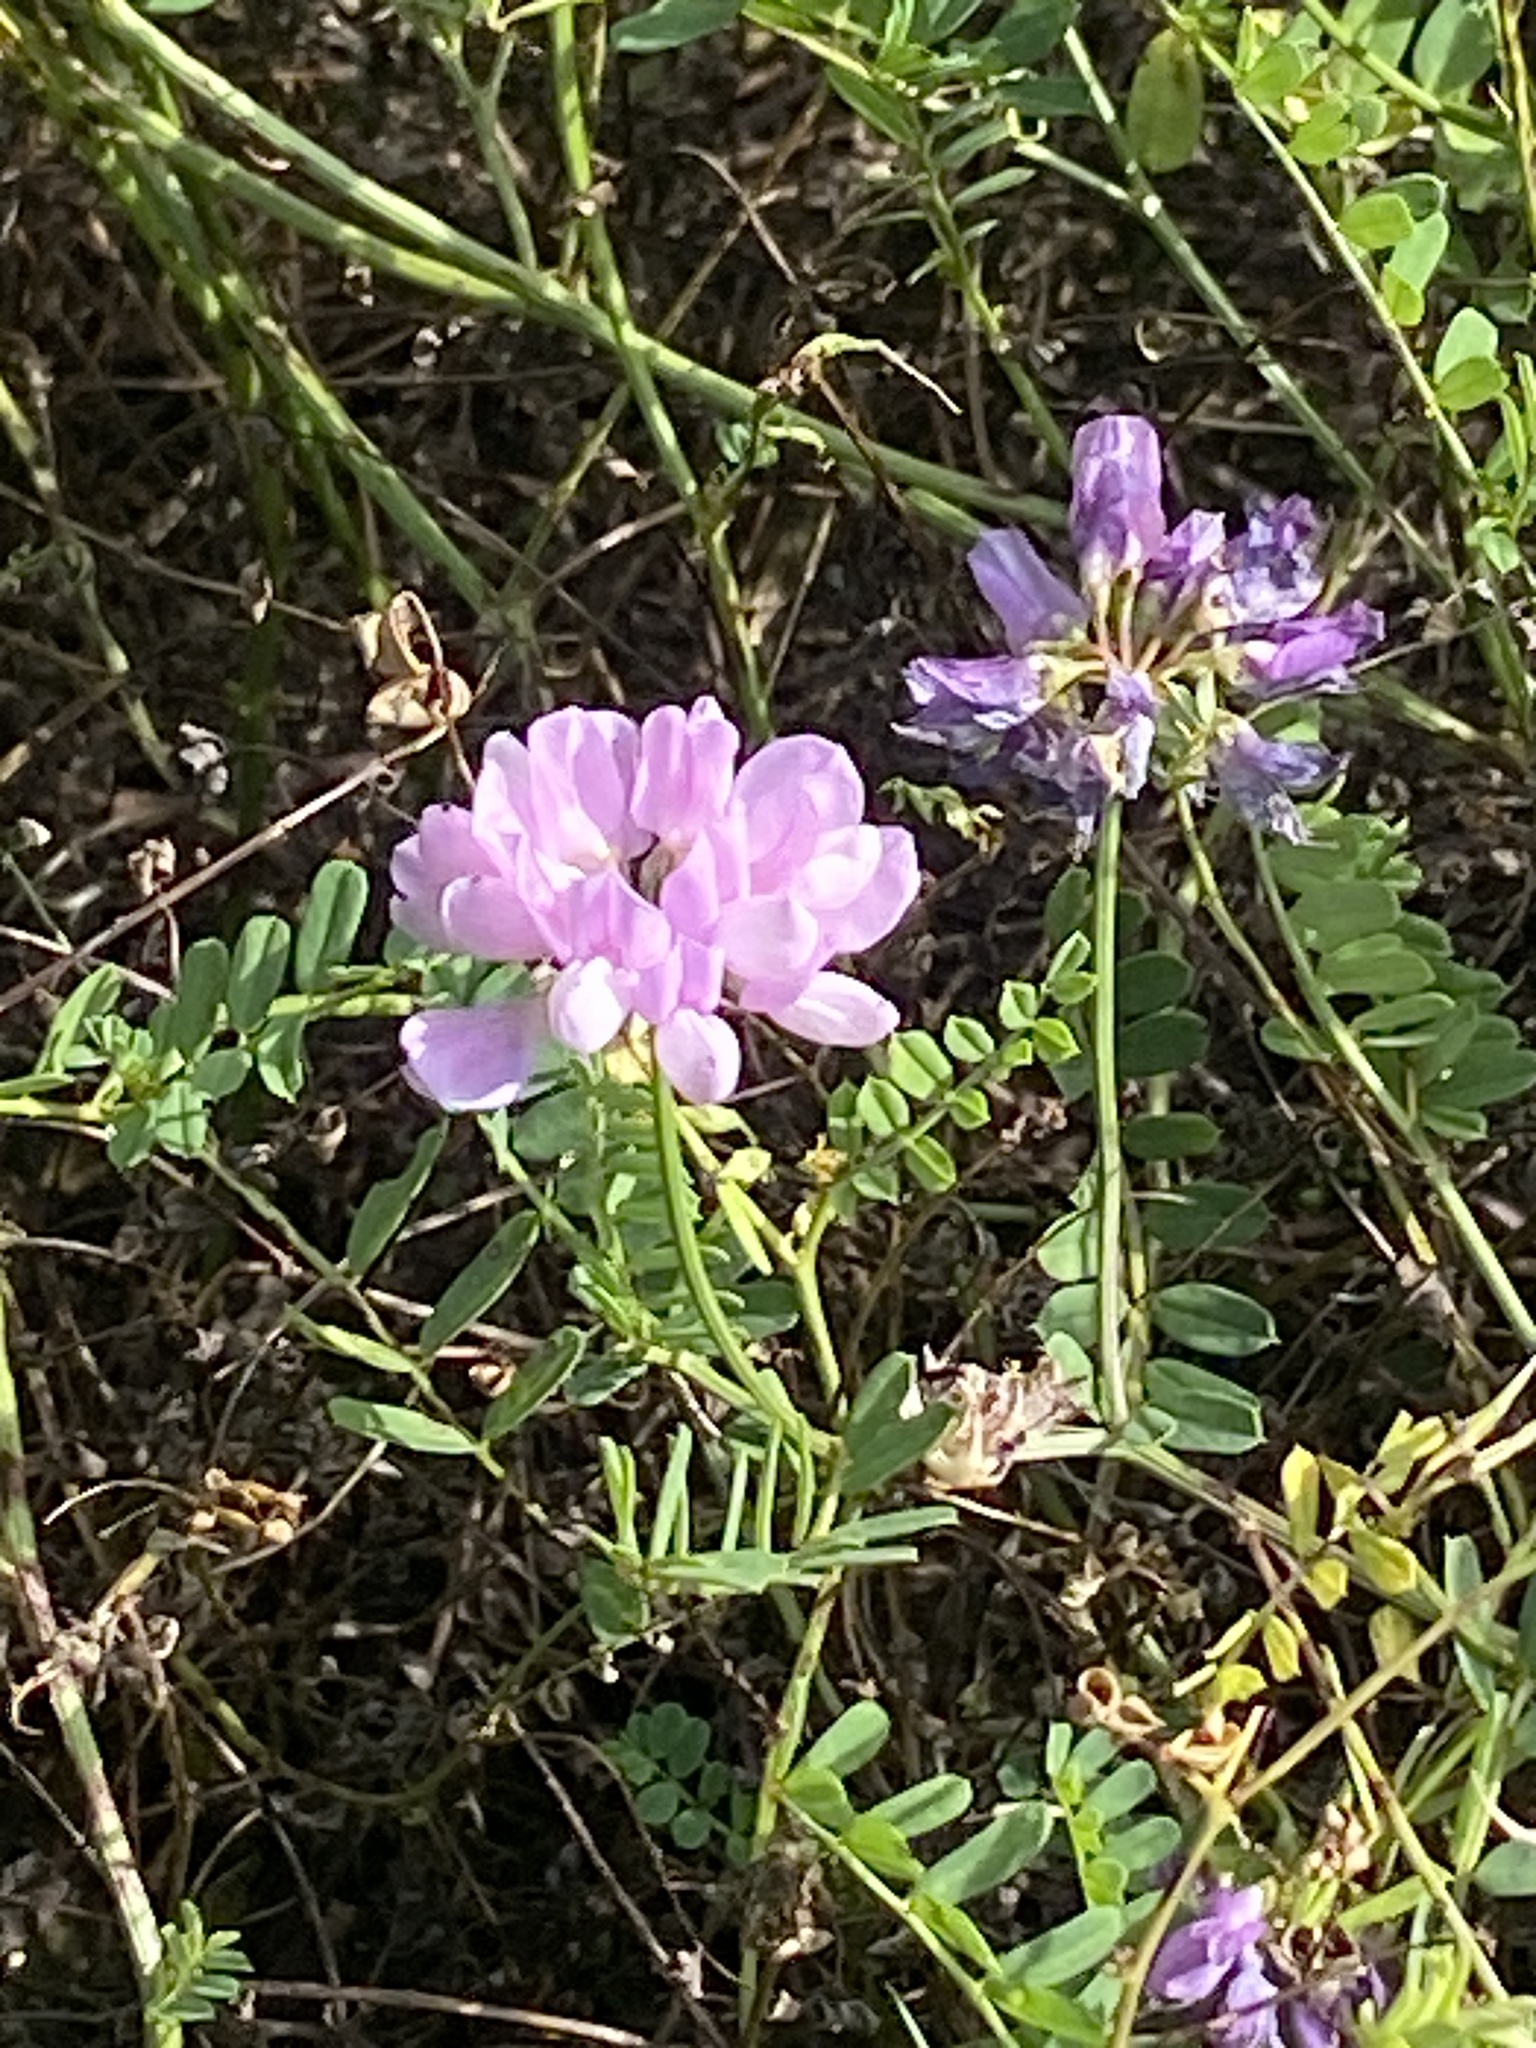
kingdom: Plantae
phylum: Tracheophyta
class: Magnoliopsida
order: Fabales
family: Fabaceae
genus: Coronilla
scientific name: Coronilla varia
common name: Crownvetch
